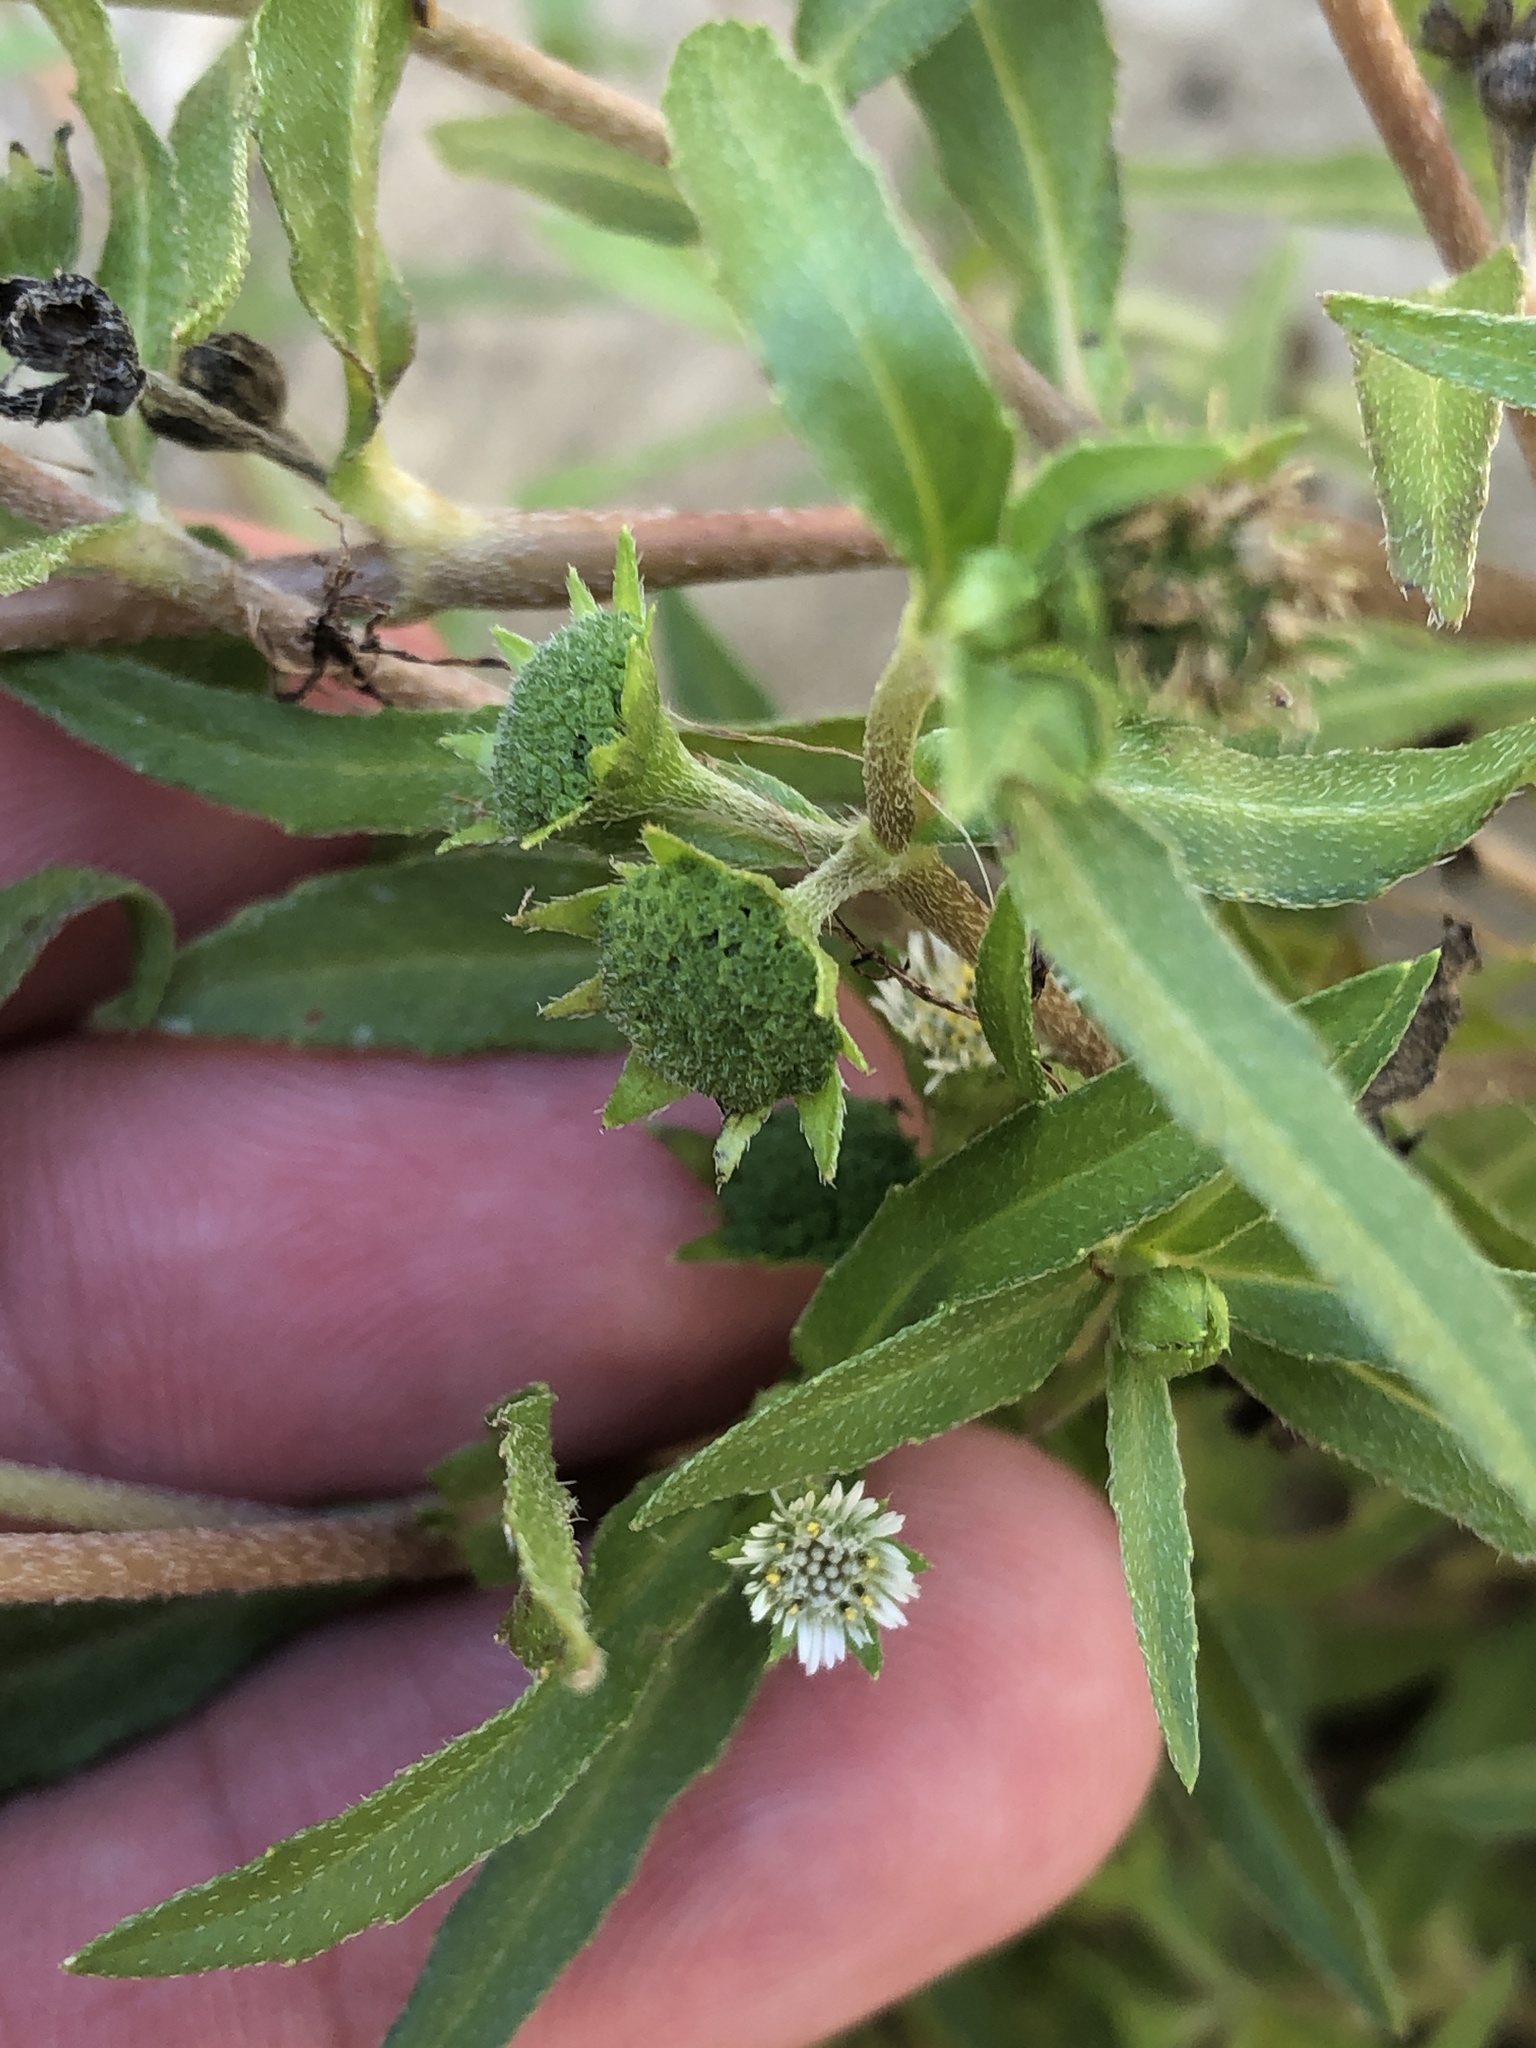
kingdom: Plantae
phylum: Tracheophyta
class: Magnoliopsida
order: Asterales
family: Asteraceae
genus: Eclipta
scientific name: Eclipta prostrata
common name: False daisy
